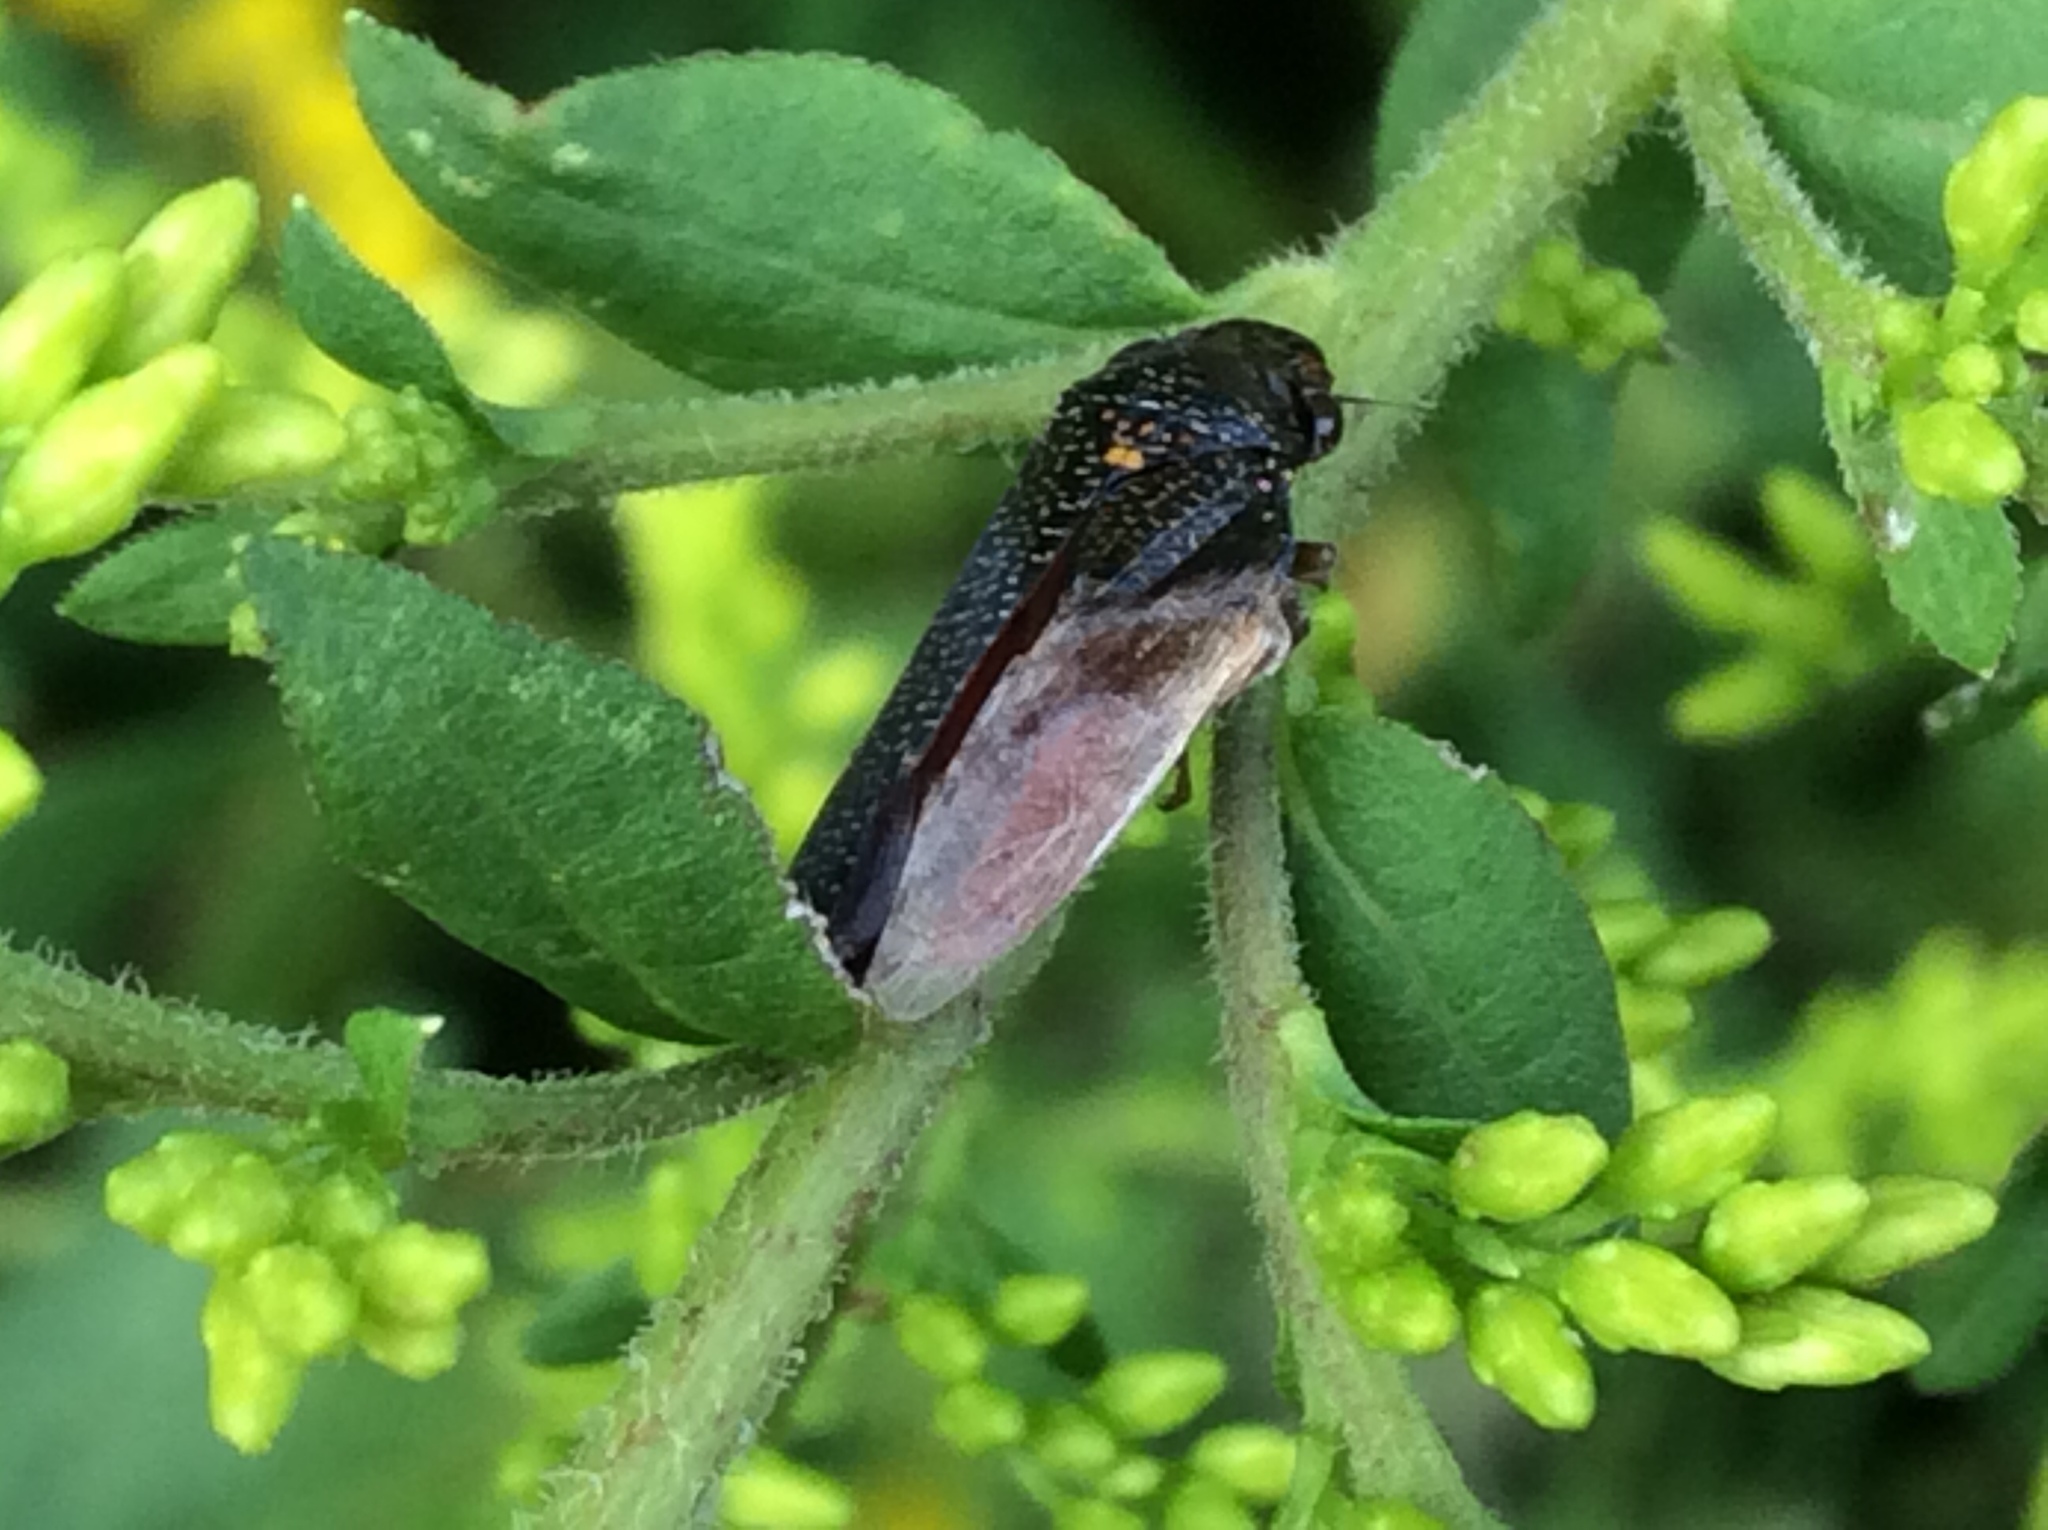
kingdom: Animalia
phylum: Arthropoda
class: Insecta
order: Hemiptera
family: Cicadellidae
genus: Paraulacizes
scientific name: Paraulacizes irrorata
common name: Speckled sharpshooter
